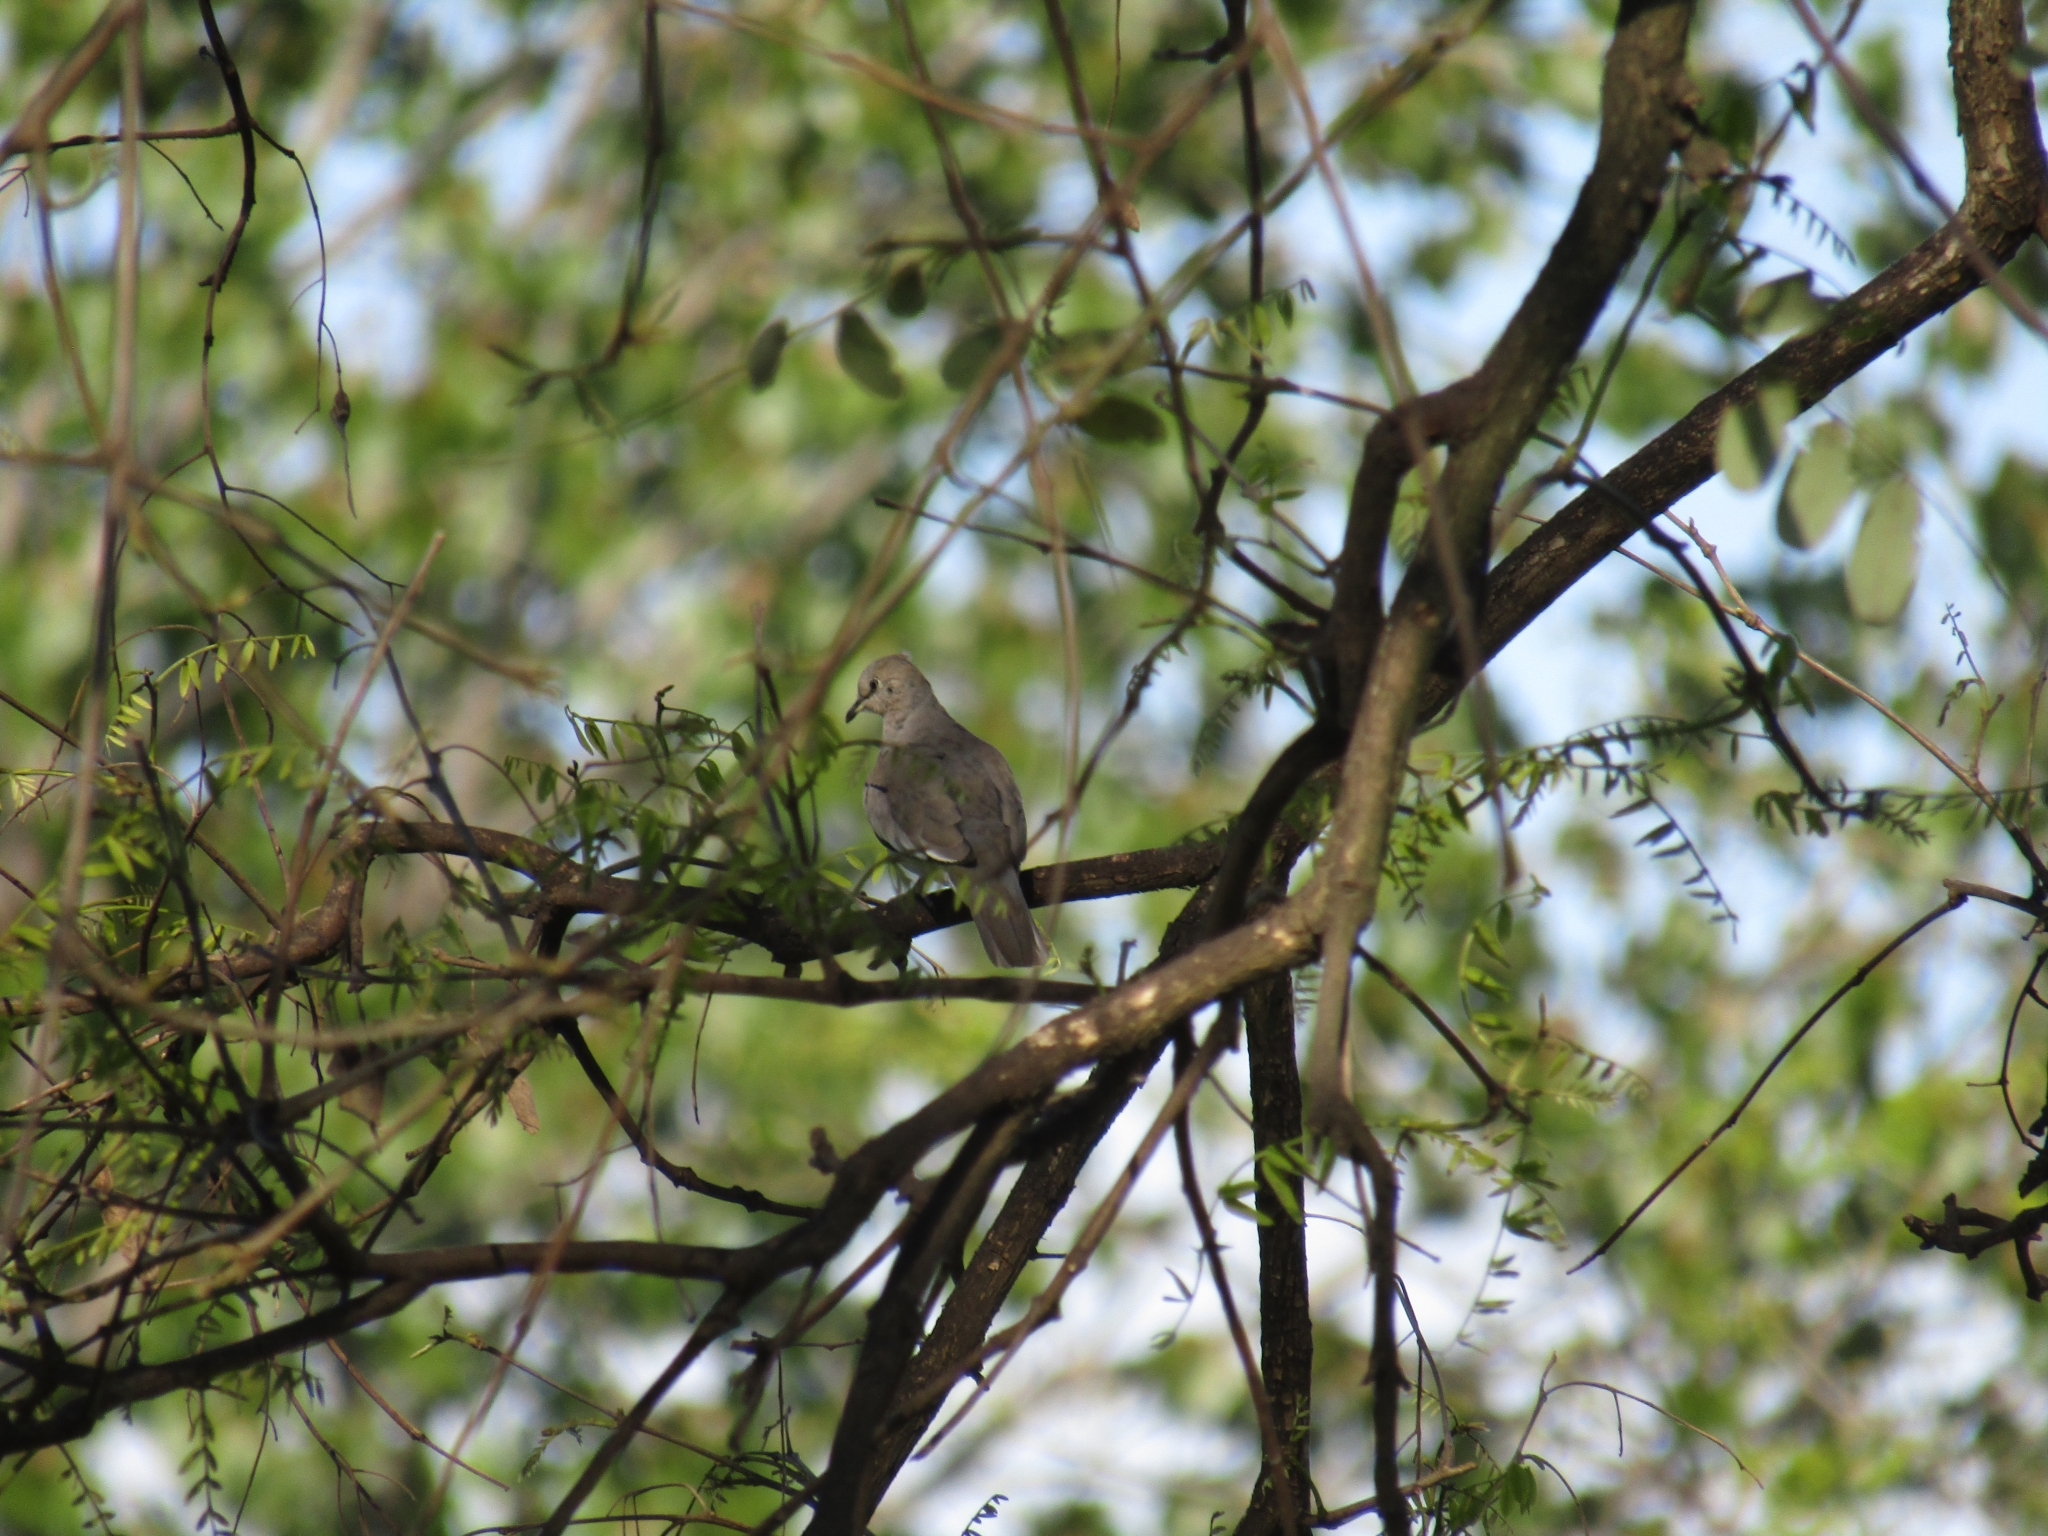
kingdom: Animalia
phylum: Chordata
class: Aves
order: Columbiformes
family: Columbidae
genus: Columbina
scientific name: Columbina picui
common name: Picui ground dove
